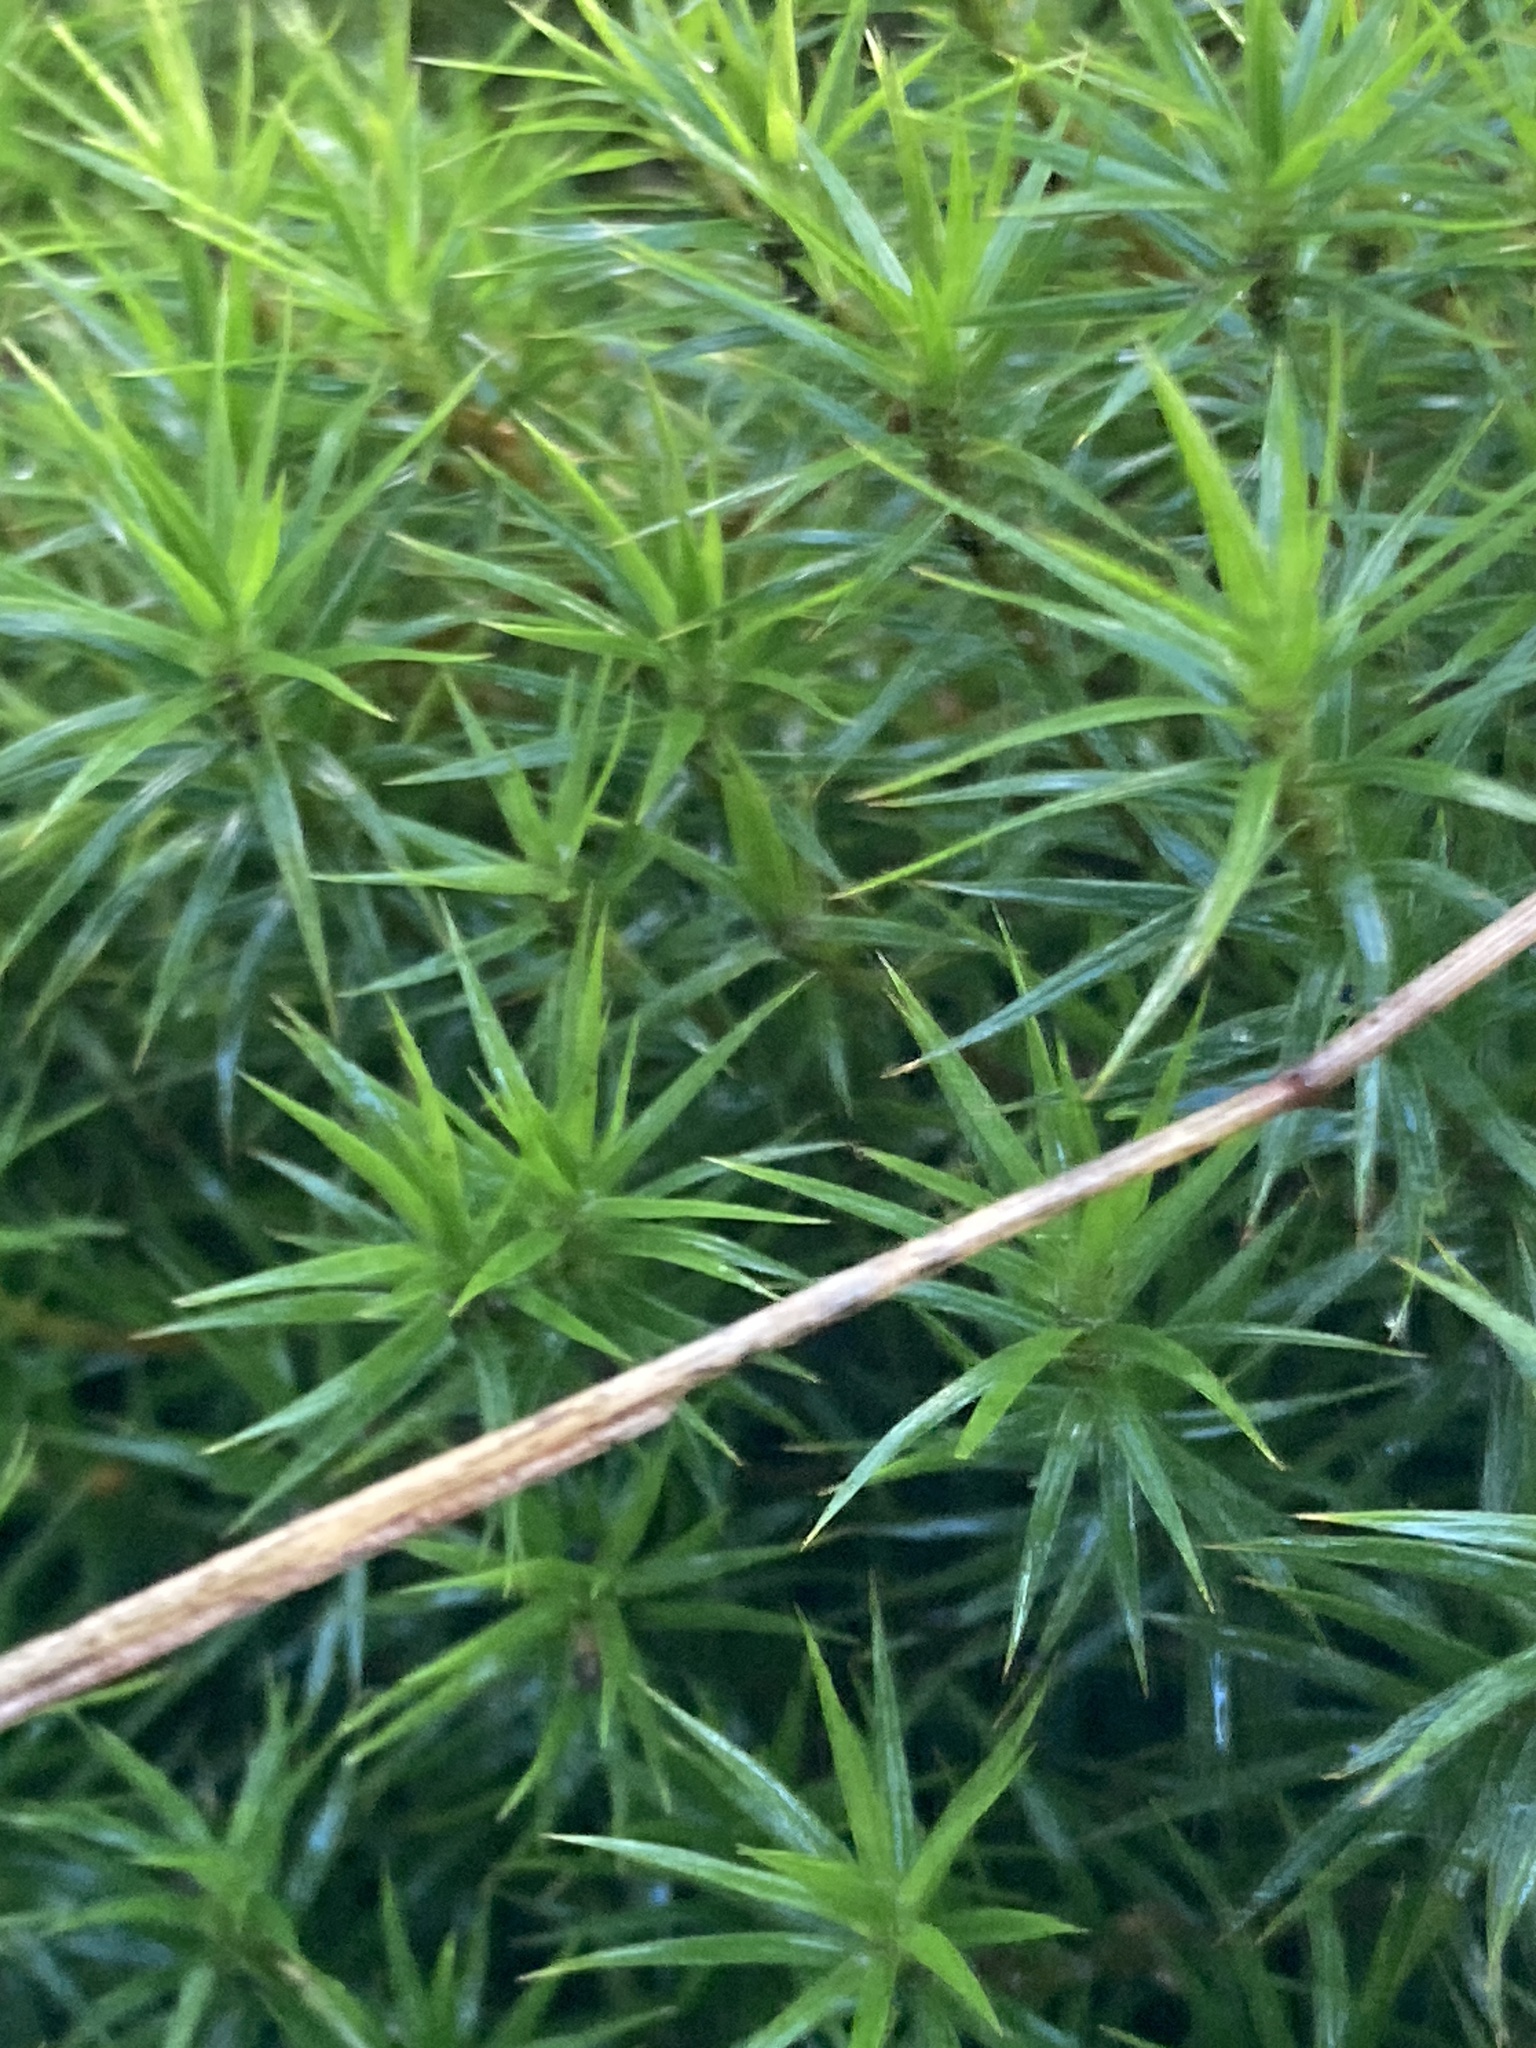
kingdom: Plantae
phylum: Bryophyta
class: Polytrichopsida
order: Polytrichales
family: Polytrichaceae
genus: Polytrichum
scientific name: Polytrichum formosum
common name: Bank haircap moss
